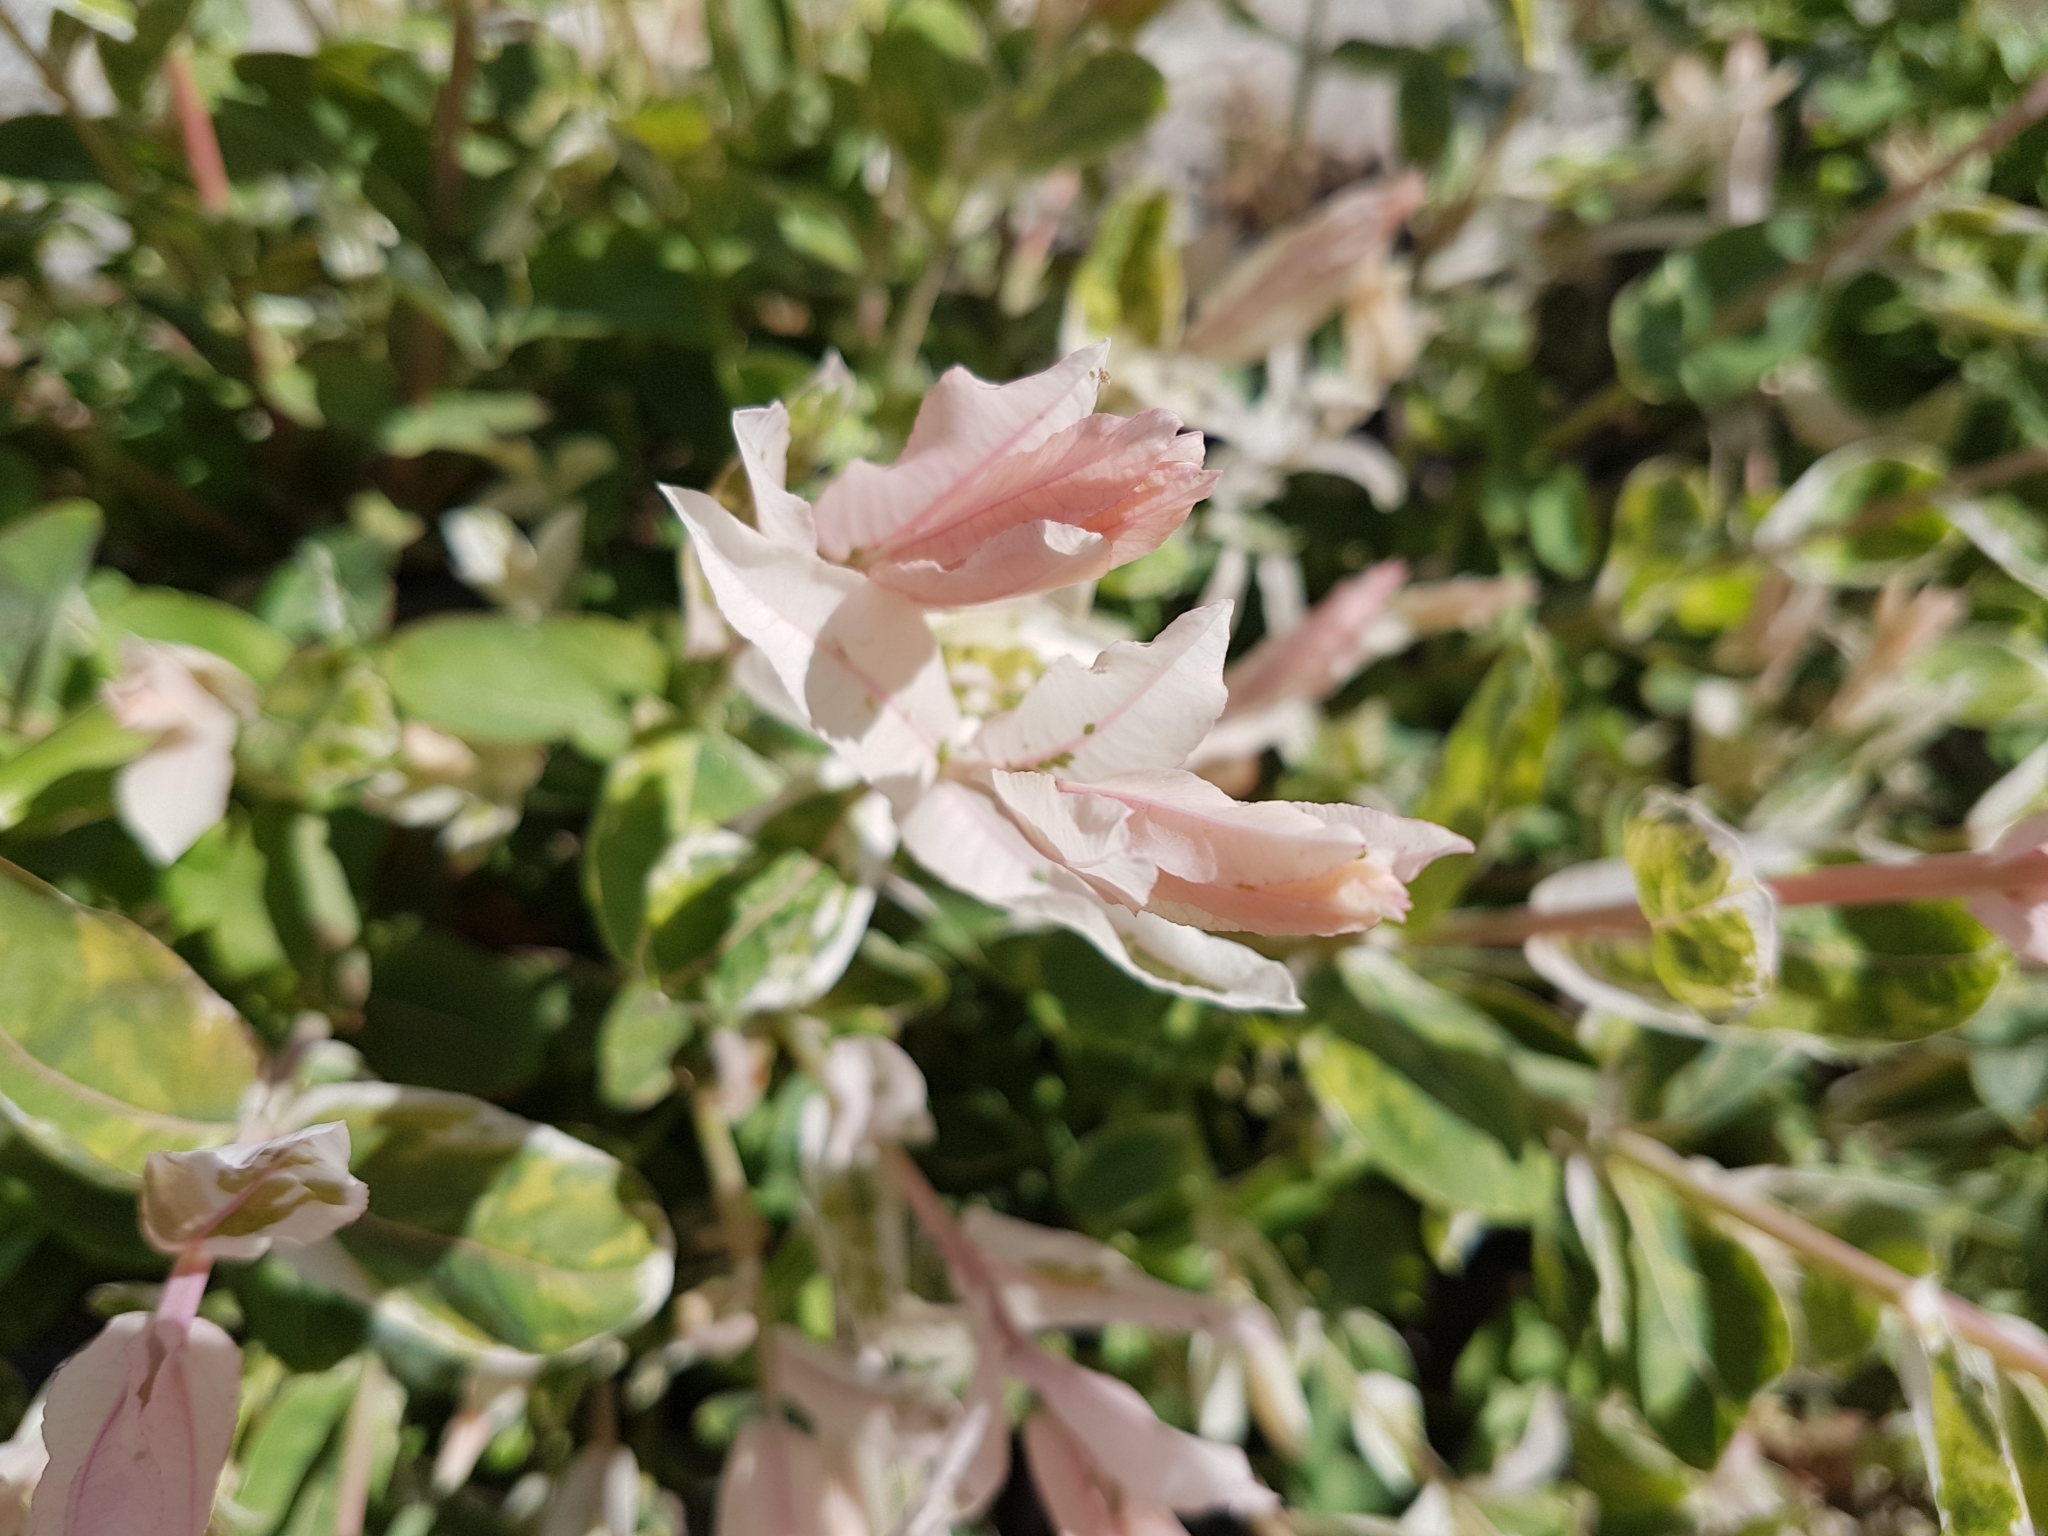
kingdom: Plantae
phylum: Tracheophyta
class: Magnoliopsida
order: Malpighiales
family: Salicaceae
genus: Salix
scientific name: Salix integra
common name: Dappled willow
